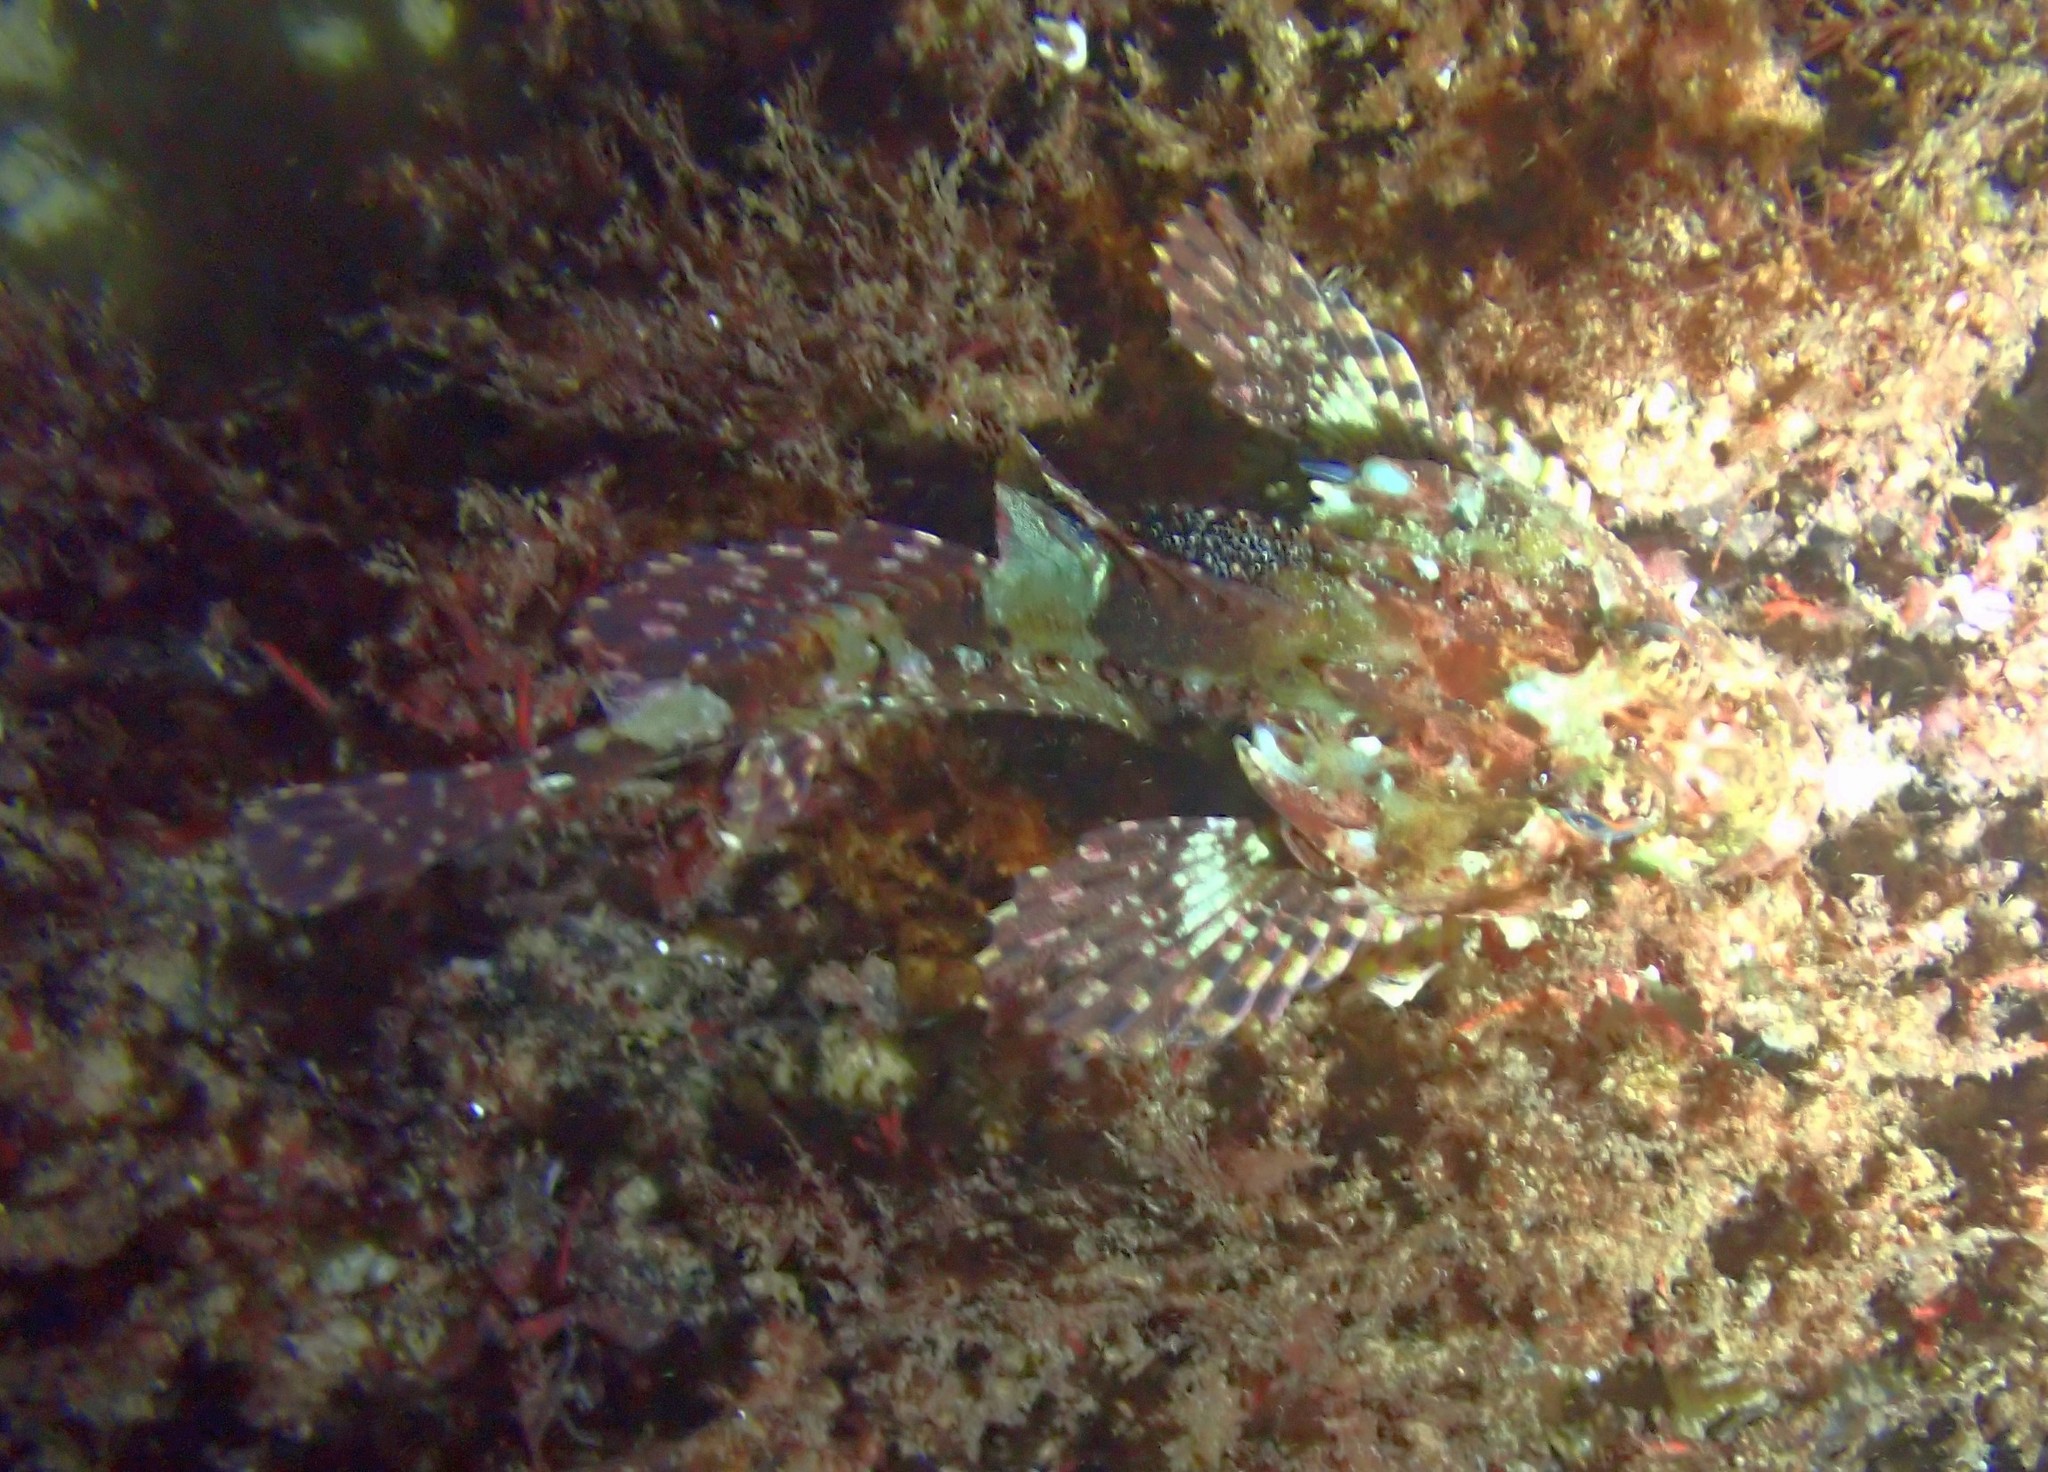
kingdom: Animalia
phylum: Chordata
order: Scorpaeniformes
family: Cottidae
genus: Taurulus
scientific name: Taurulus bubalis
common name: Sea scorpion
